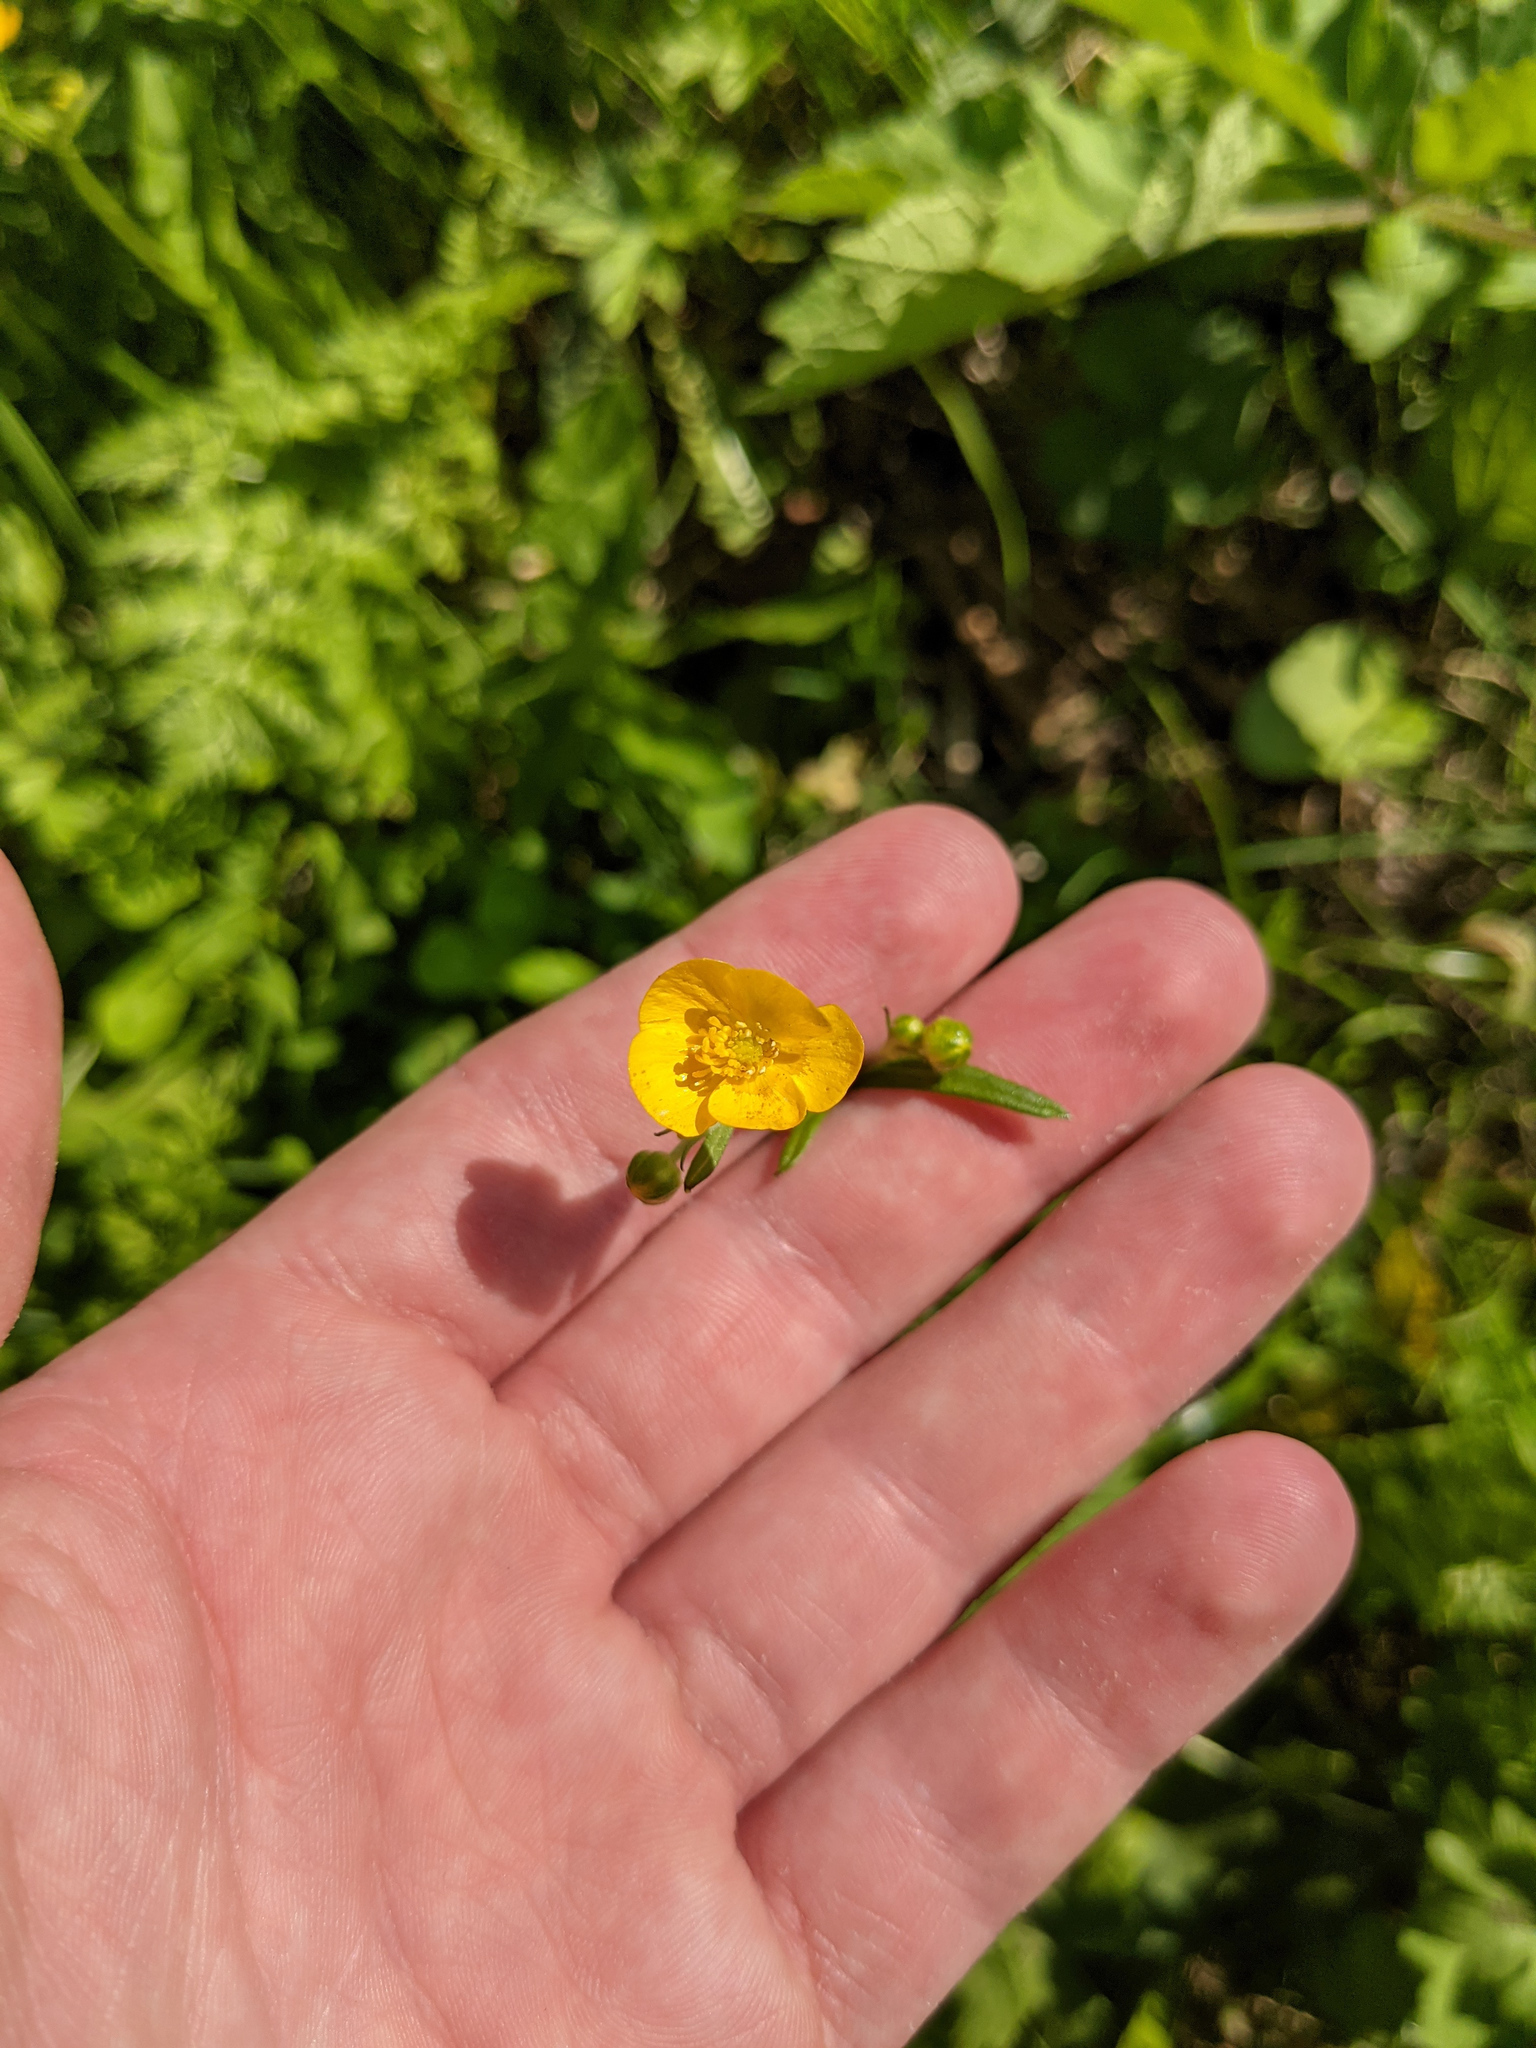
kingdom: Plantae
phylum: Tracheophyta
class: Magnoliopsida
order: Ranunculales
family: Ranunculaceae
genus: Ranunculus
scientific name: Ranunculus acris
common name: Meadow buttercup
